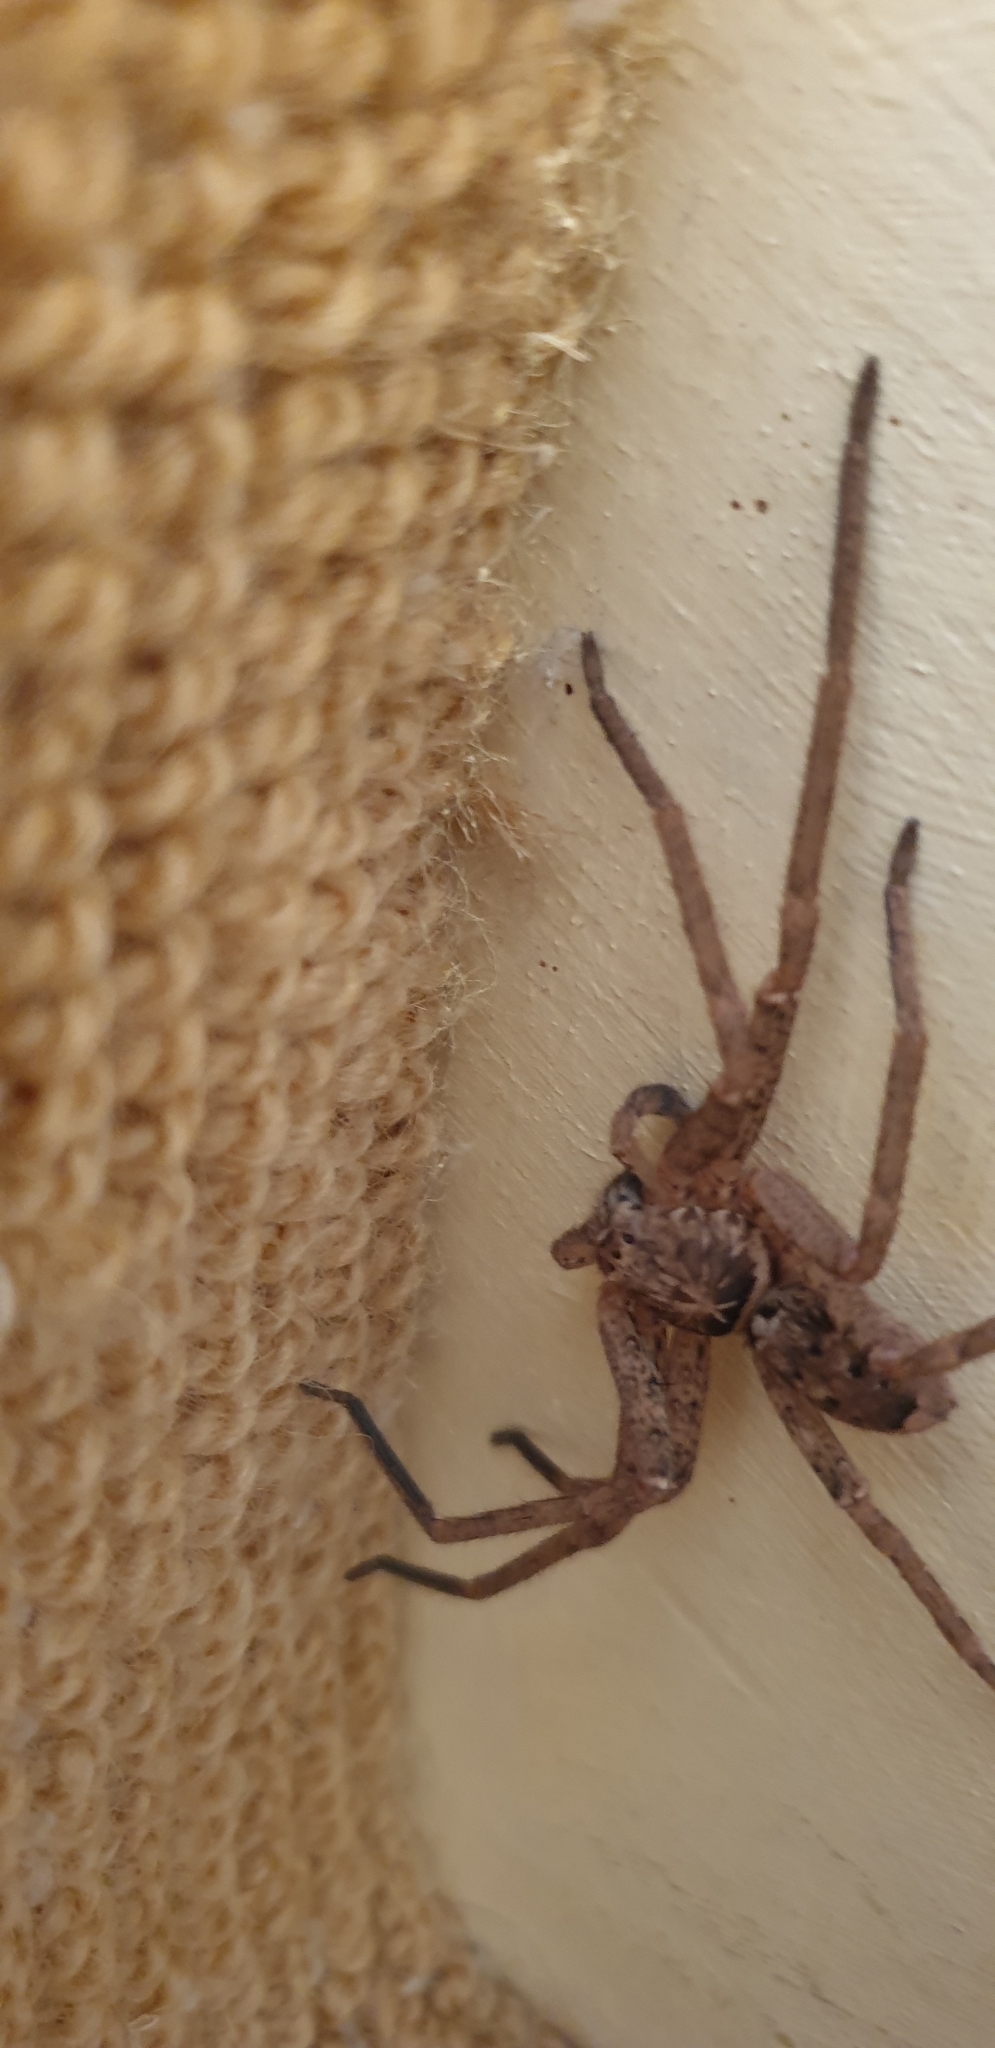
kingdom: Animalia
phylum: Arthropoda
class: Arachnida
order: Araneae
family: Sparassidae
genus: Heteropoda
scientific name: Heteropoda jugulans
